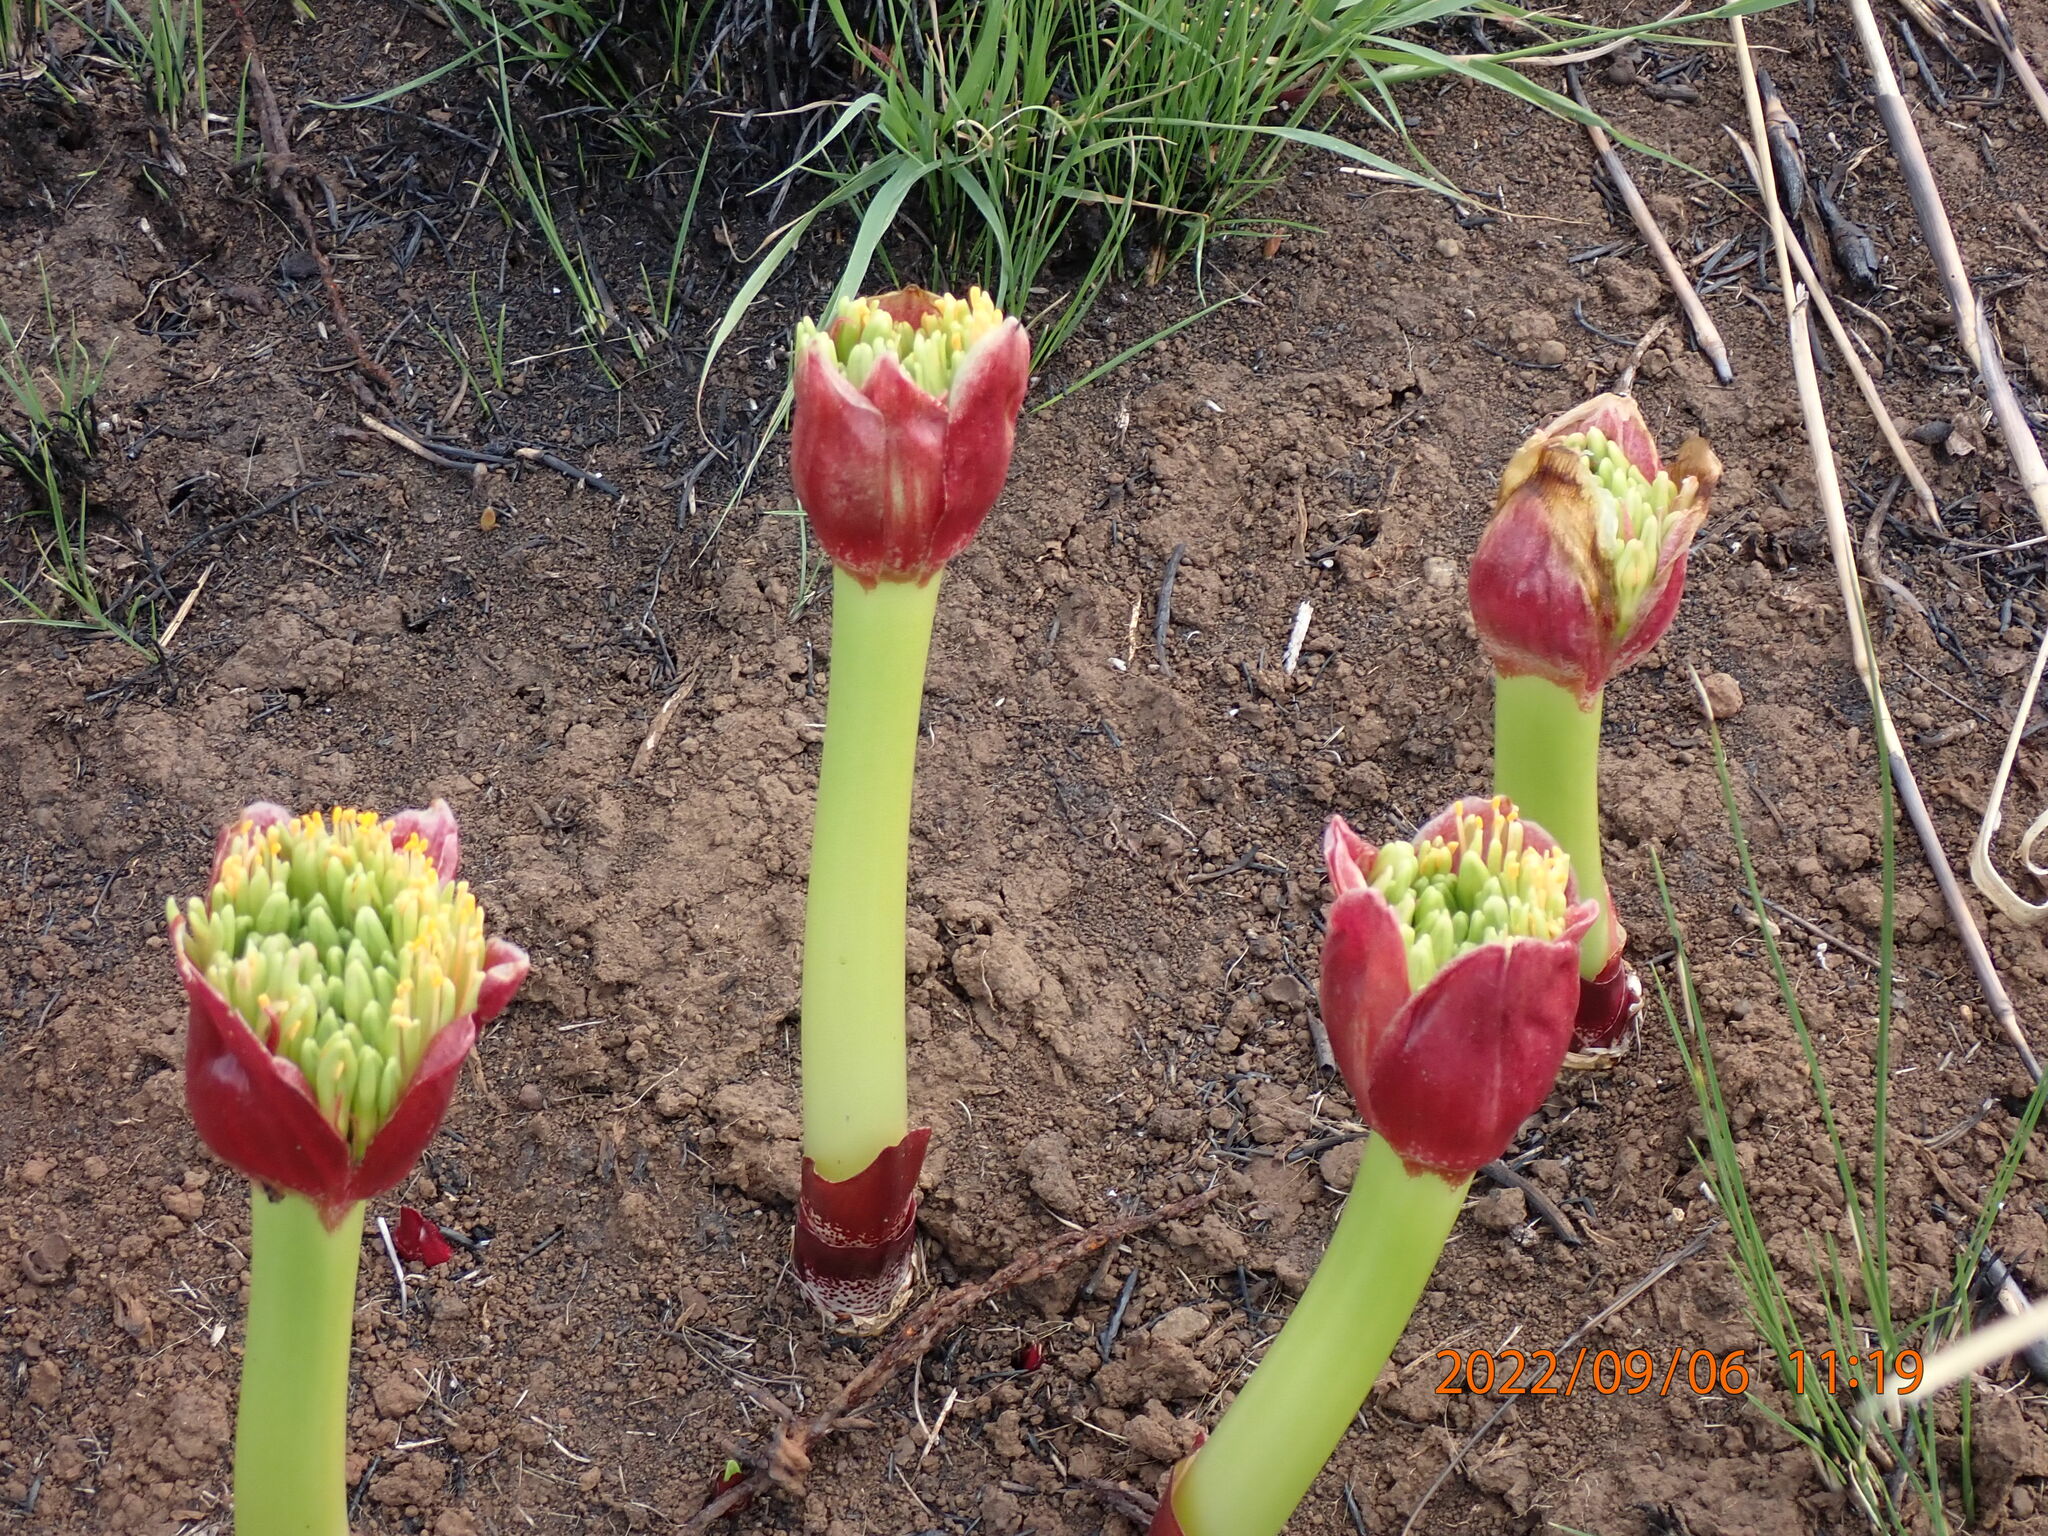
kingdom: Plantae
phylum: Tracheophyta
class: Liliopsida
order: Asparagales
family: Amaryllidaceae
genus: Scadoxus
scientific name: Scadoxus puniceus
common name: Royal-paintbrush
